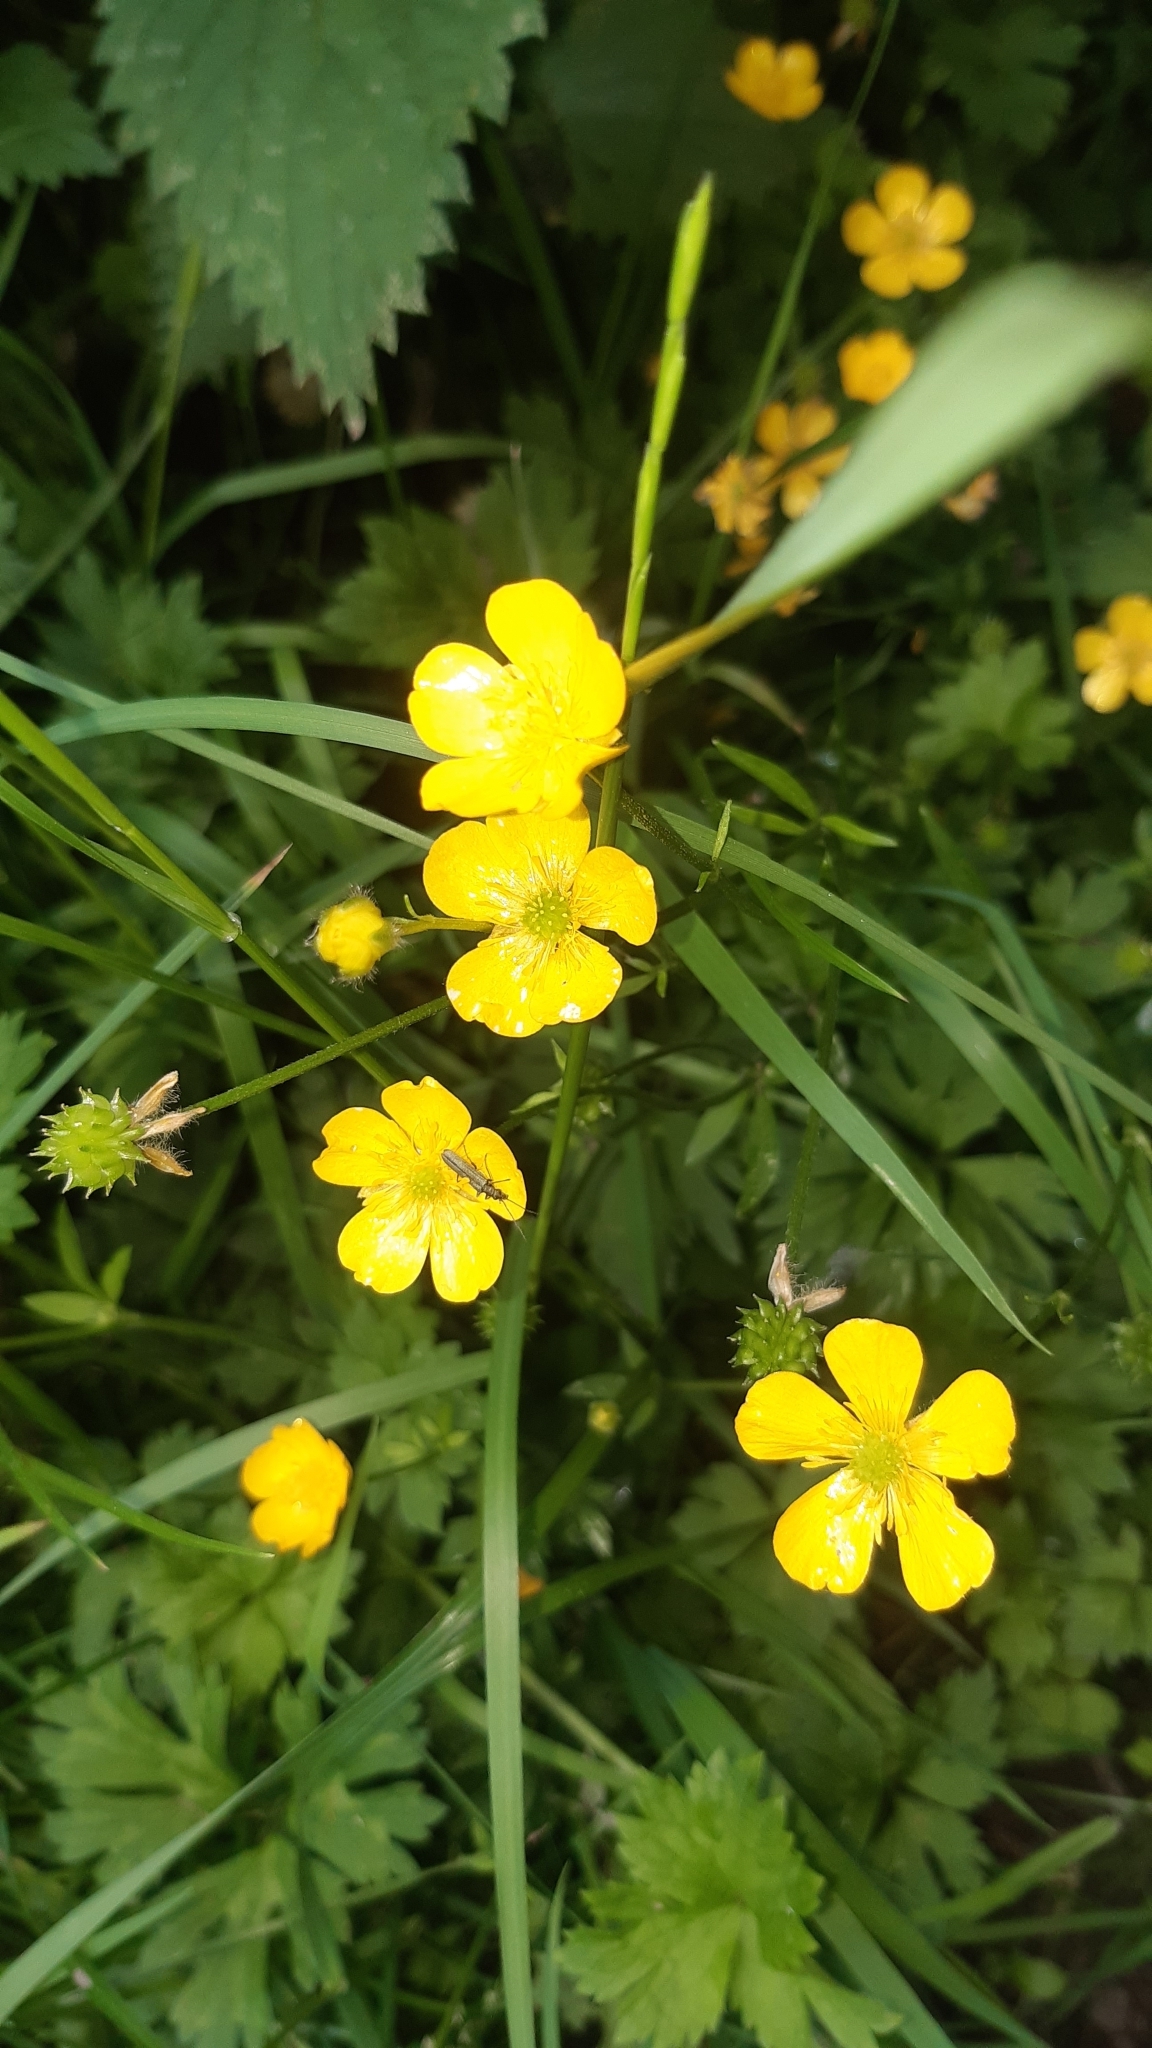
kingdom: Plantae
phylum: Tracheophyta
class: Magnoliopsida
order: Ranunculales
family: Ranunculaceae
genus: Ranunculus
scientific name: Ranunculus repens
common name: Creeping buttercup
